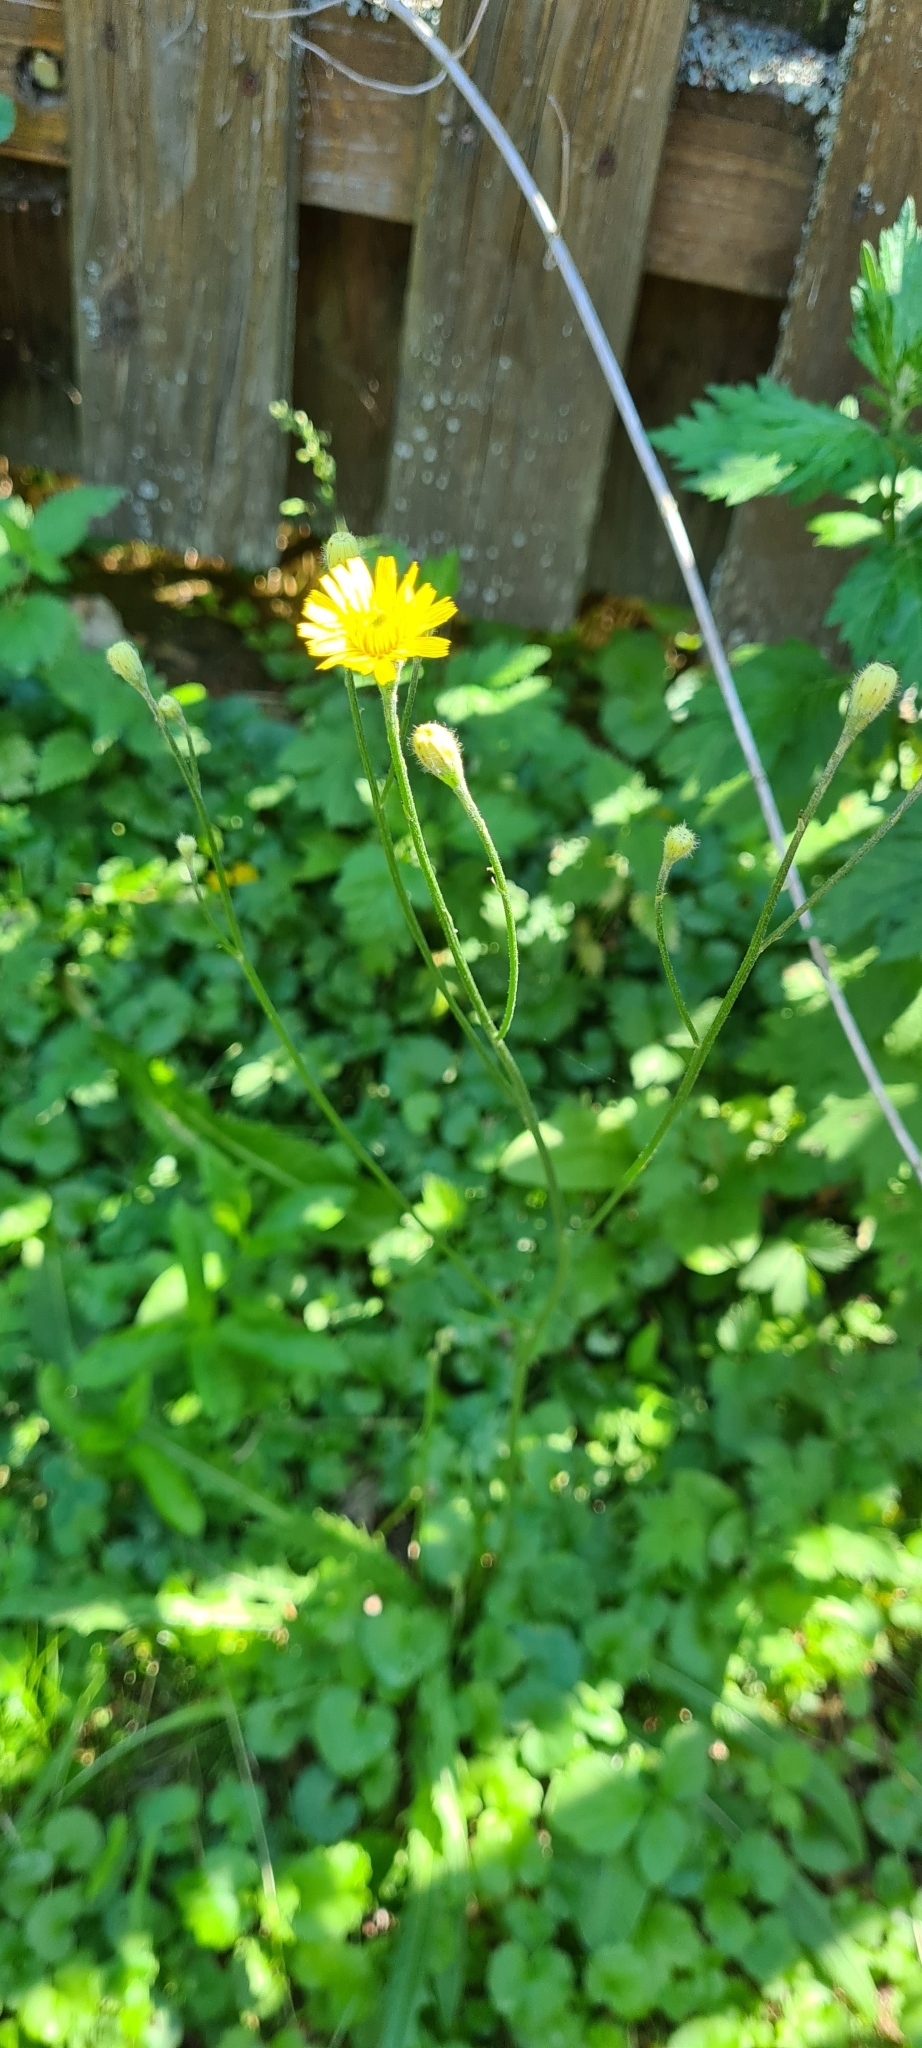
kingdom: Plantae
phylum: Tracheophyta
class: Magnoliopsida
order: Asterales
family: Asteraceae
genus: Scorzoneroides
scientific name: Scorzoneroides autumnalis
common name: Autumn hawkbit
